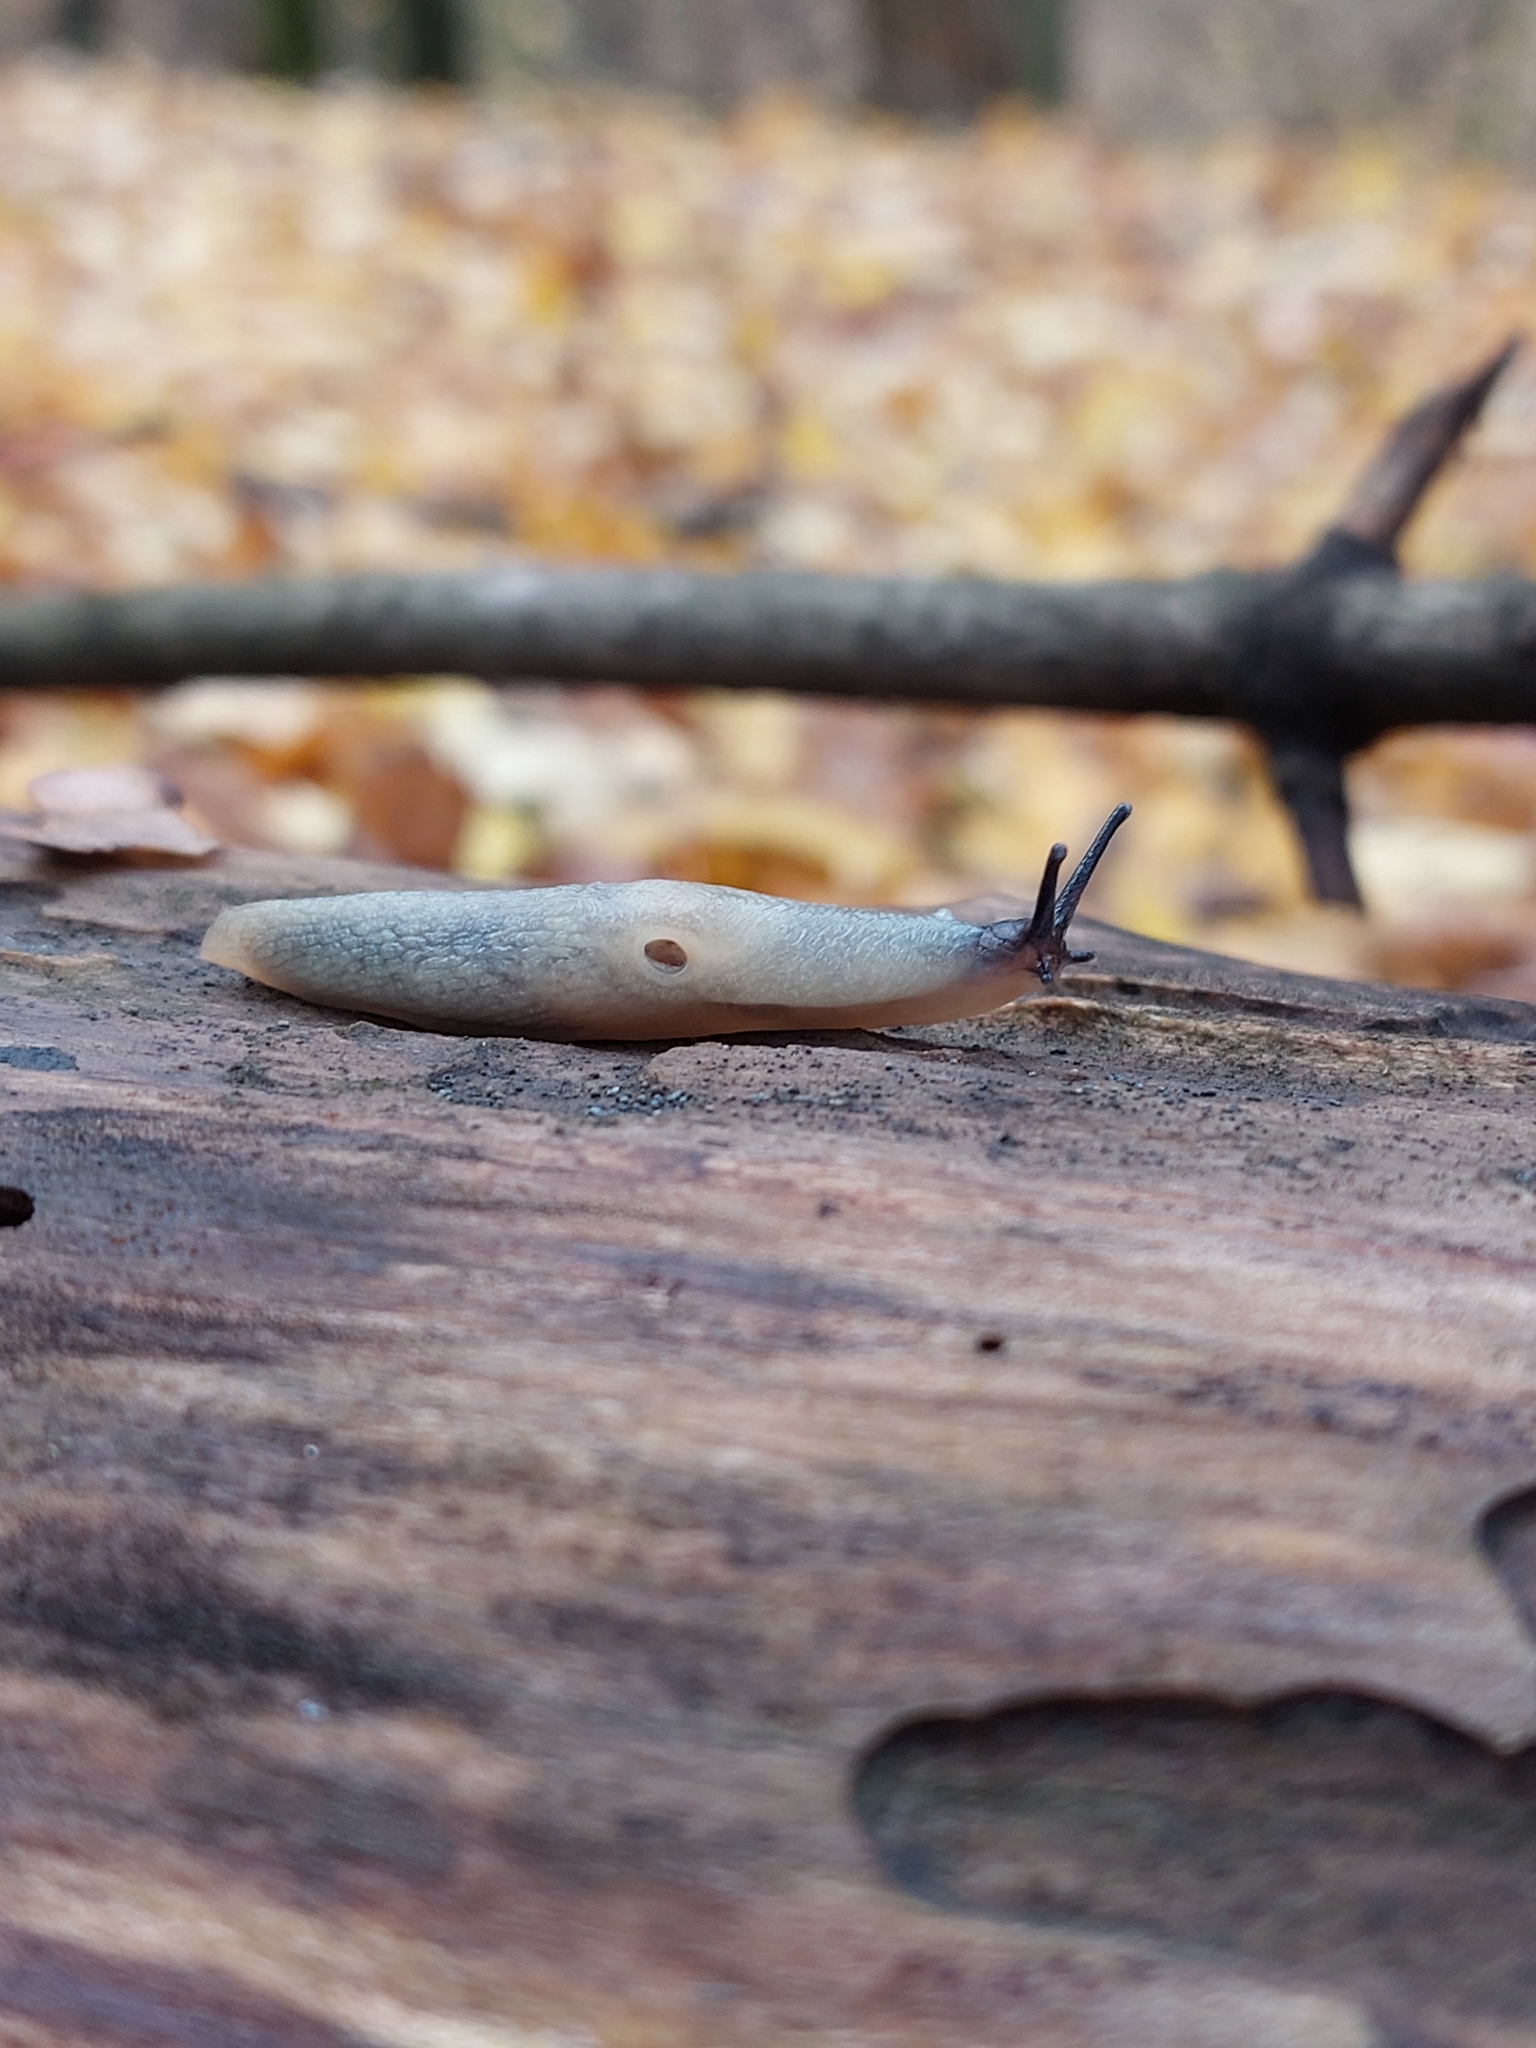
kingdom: Animalia
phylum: Mollusca
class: Gastropoda
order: Stylommatophora
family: Agriolimacidae
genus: Krynickillus
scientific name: Krynickillus melanocephalus
